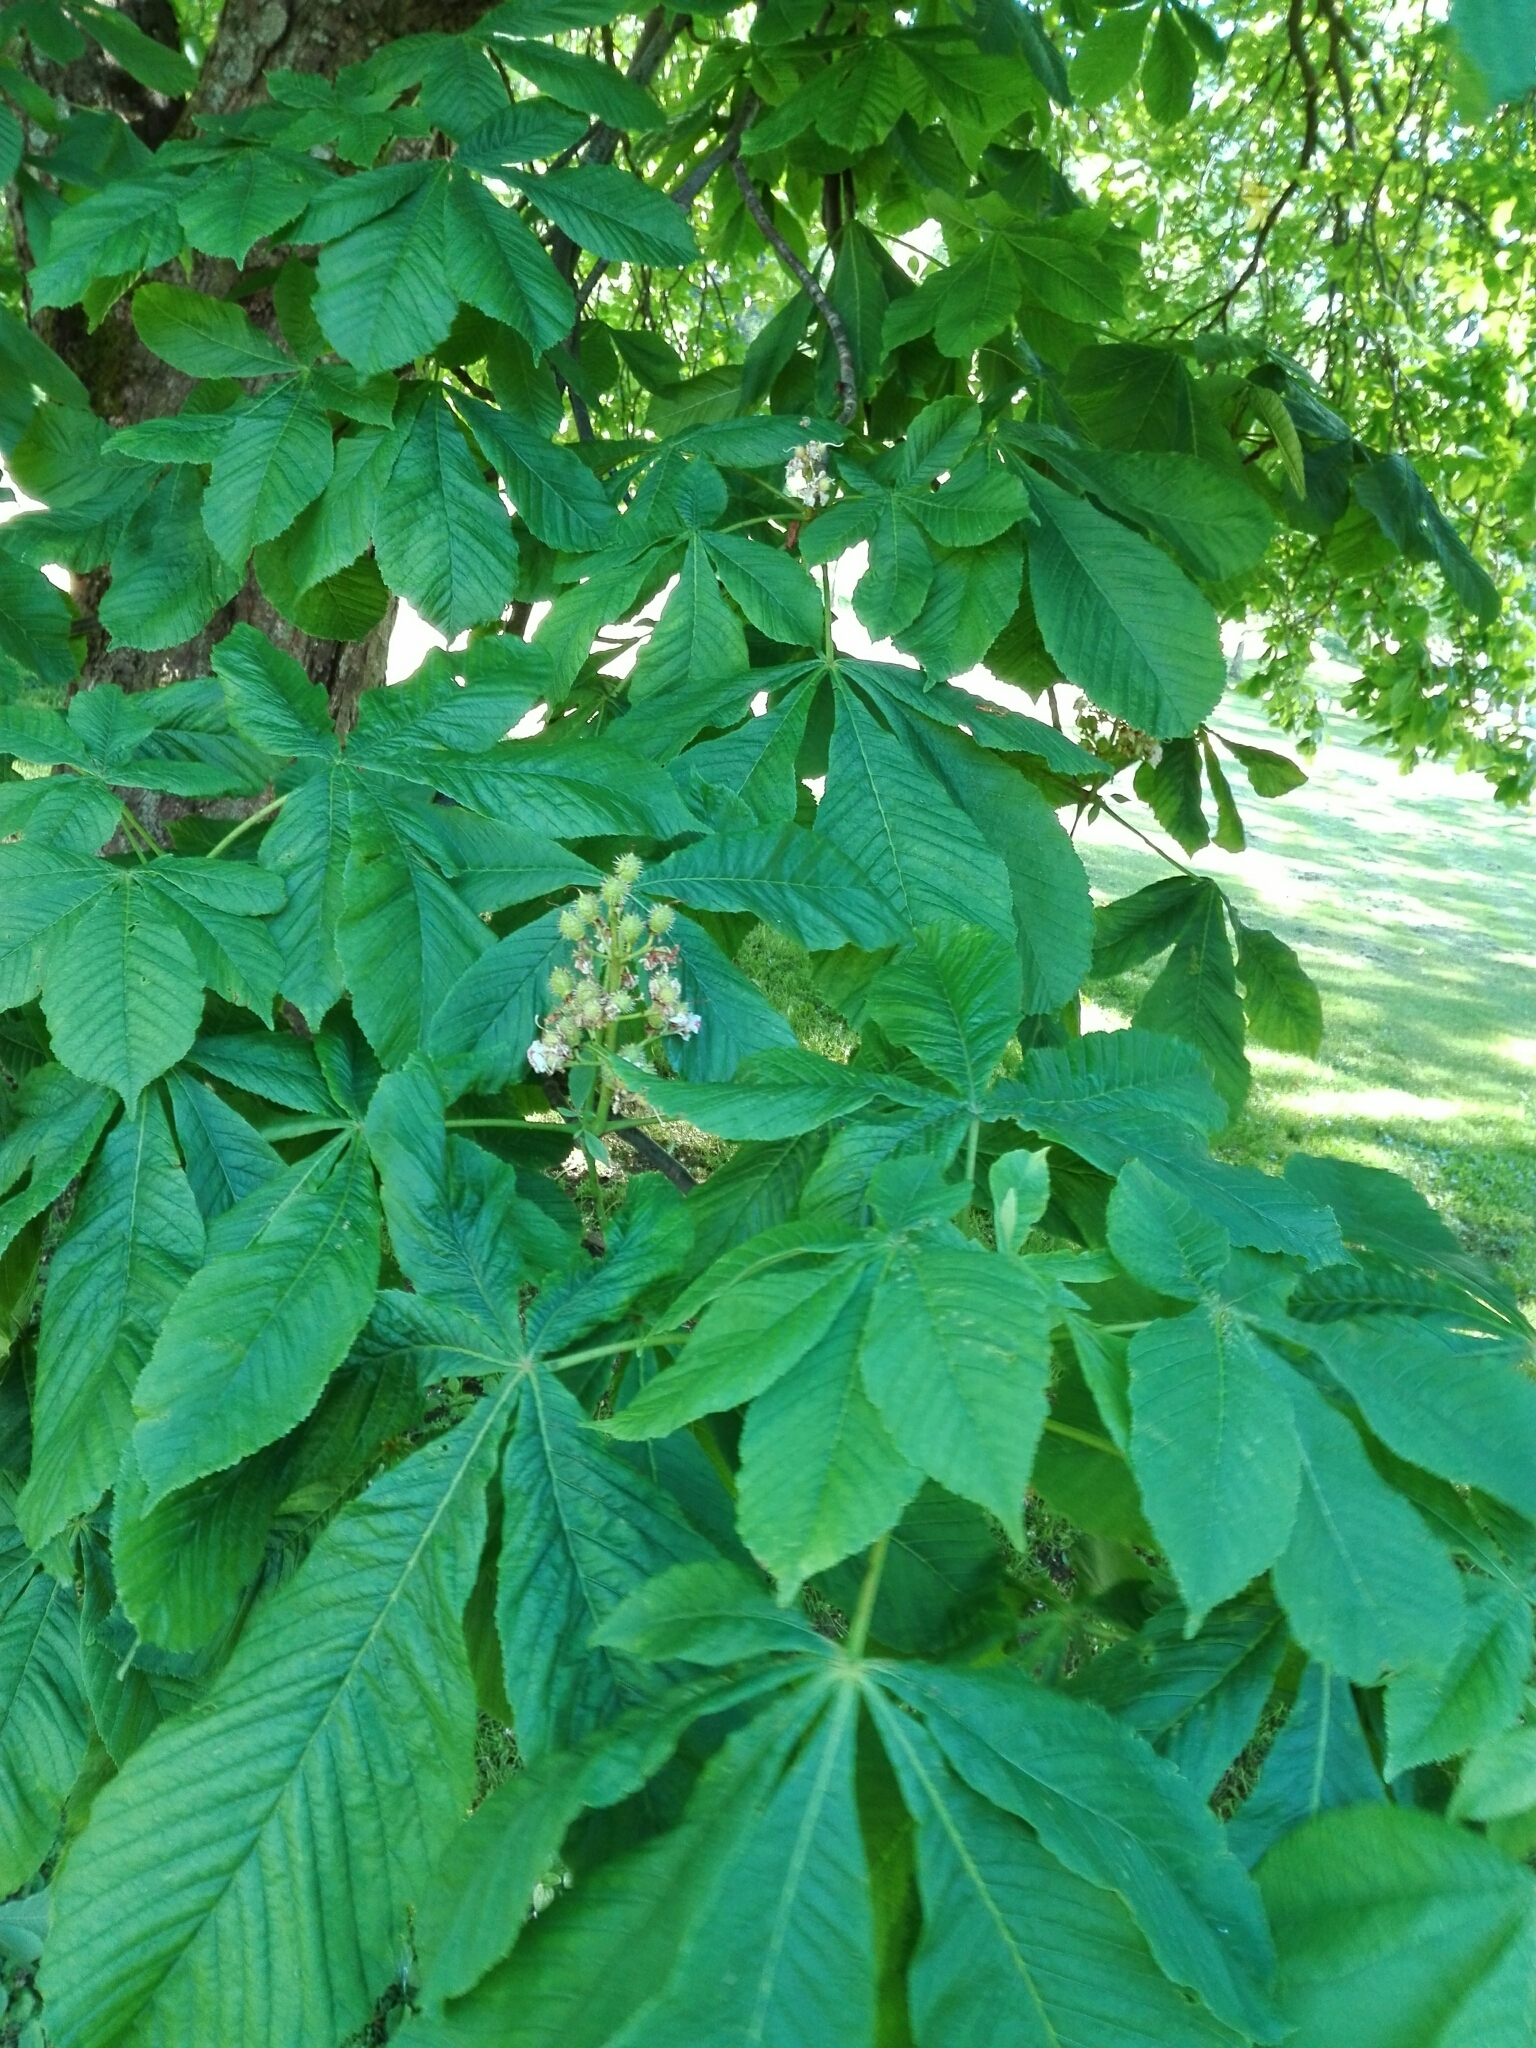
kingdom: Plantae
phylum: Tracheophyta
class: Magnoliopsida
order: Sapindales
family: Sapindaceae
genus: Aesculus
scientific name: Aesculus hippocastanum
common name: Horse-chestnut
